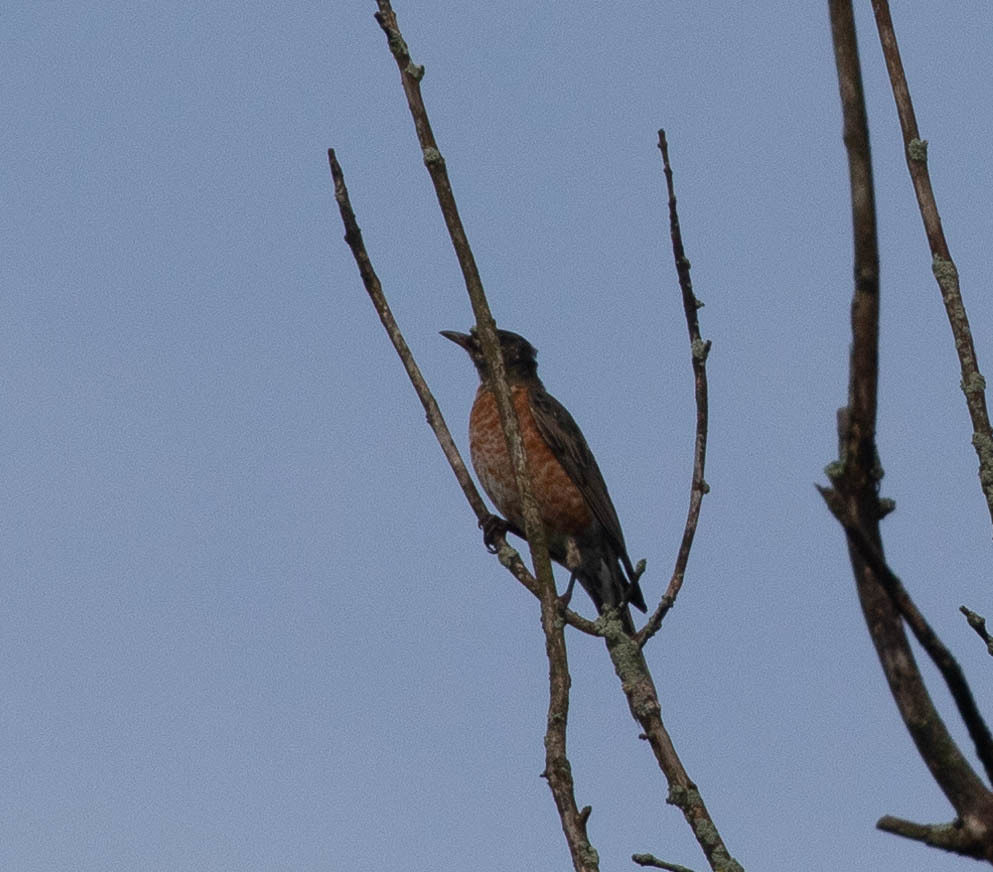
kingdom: Animalia
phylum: Chordata
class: Aves
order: Passeriformes
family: Turdidae
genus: Turdus
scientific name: Turdus migratorius
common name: American robin
